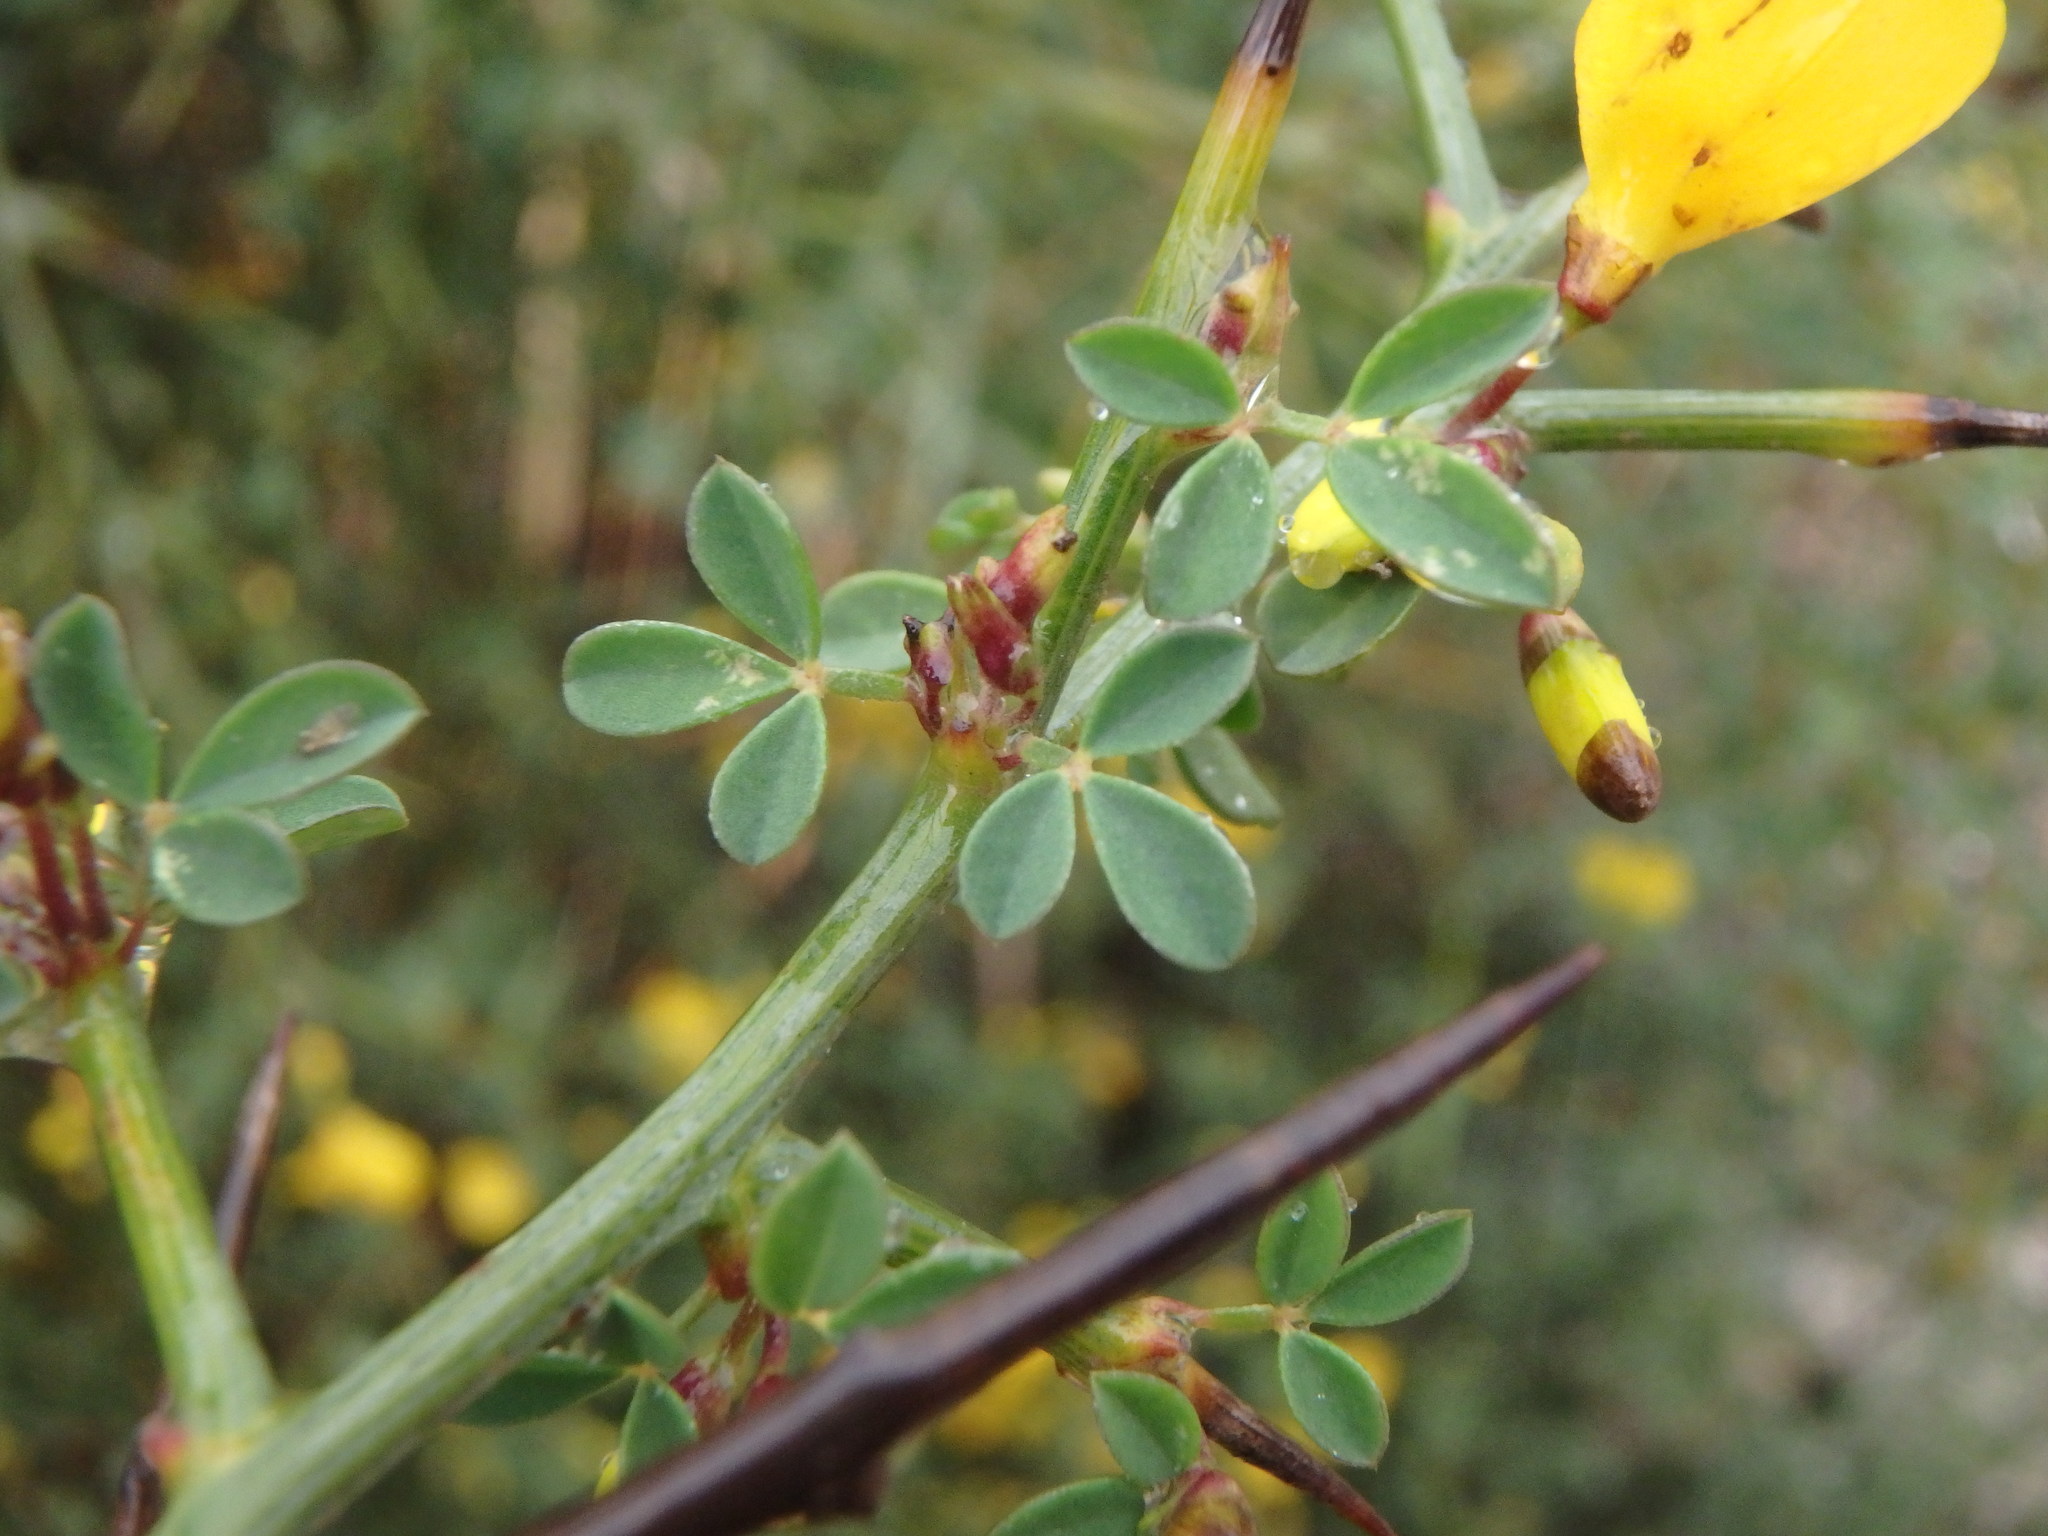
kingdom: Plantae
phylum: Tracheophyta
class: Magnoliopsida
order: Fabales
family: Fabaceae
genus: Calicotome
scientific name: Calicotome spinosa
